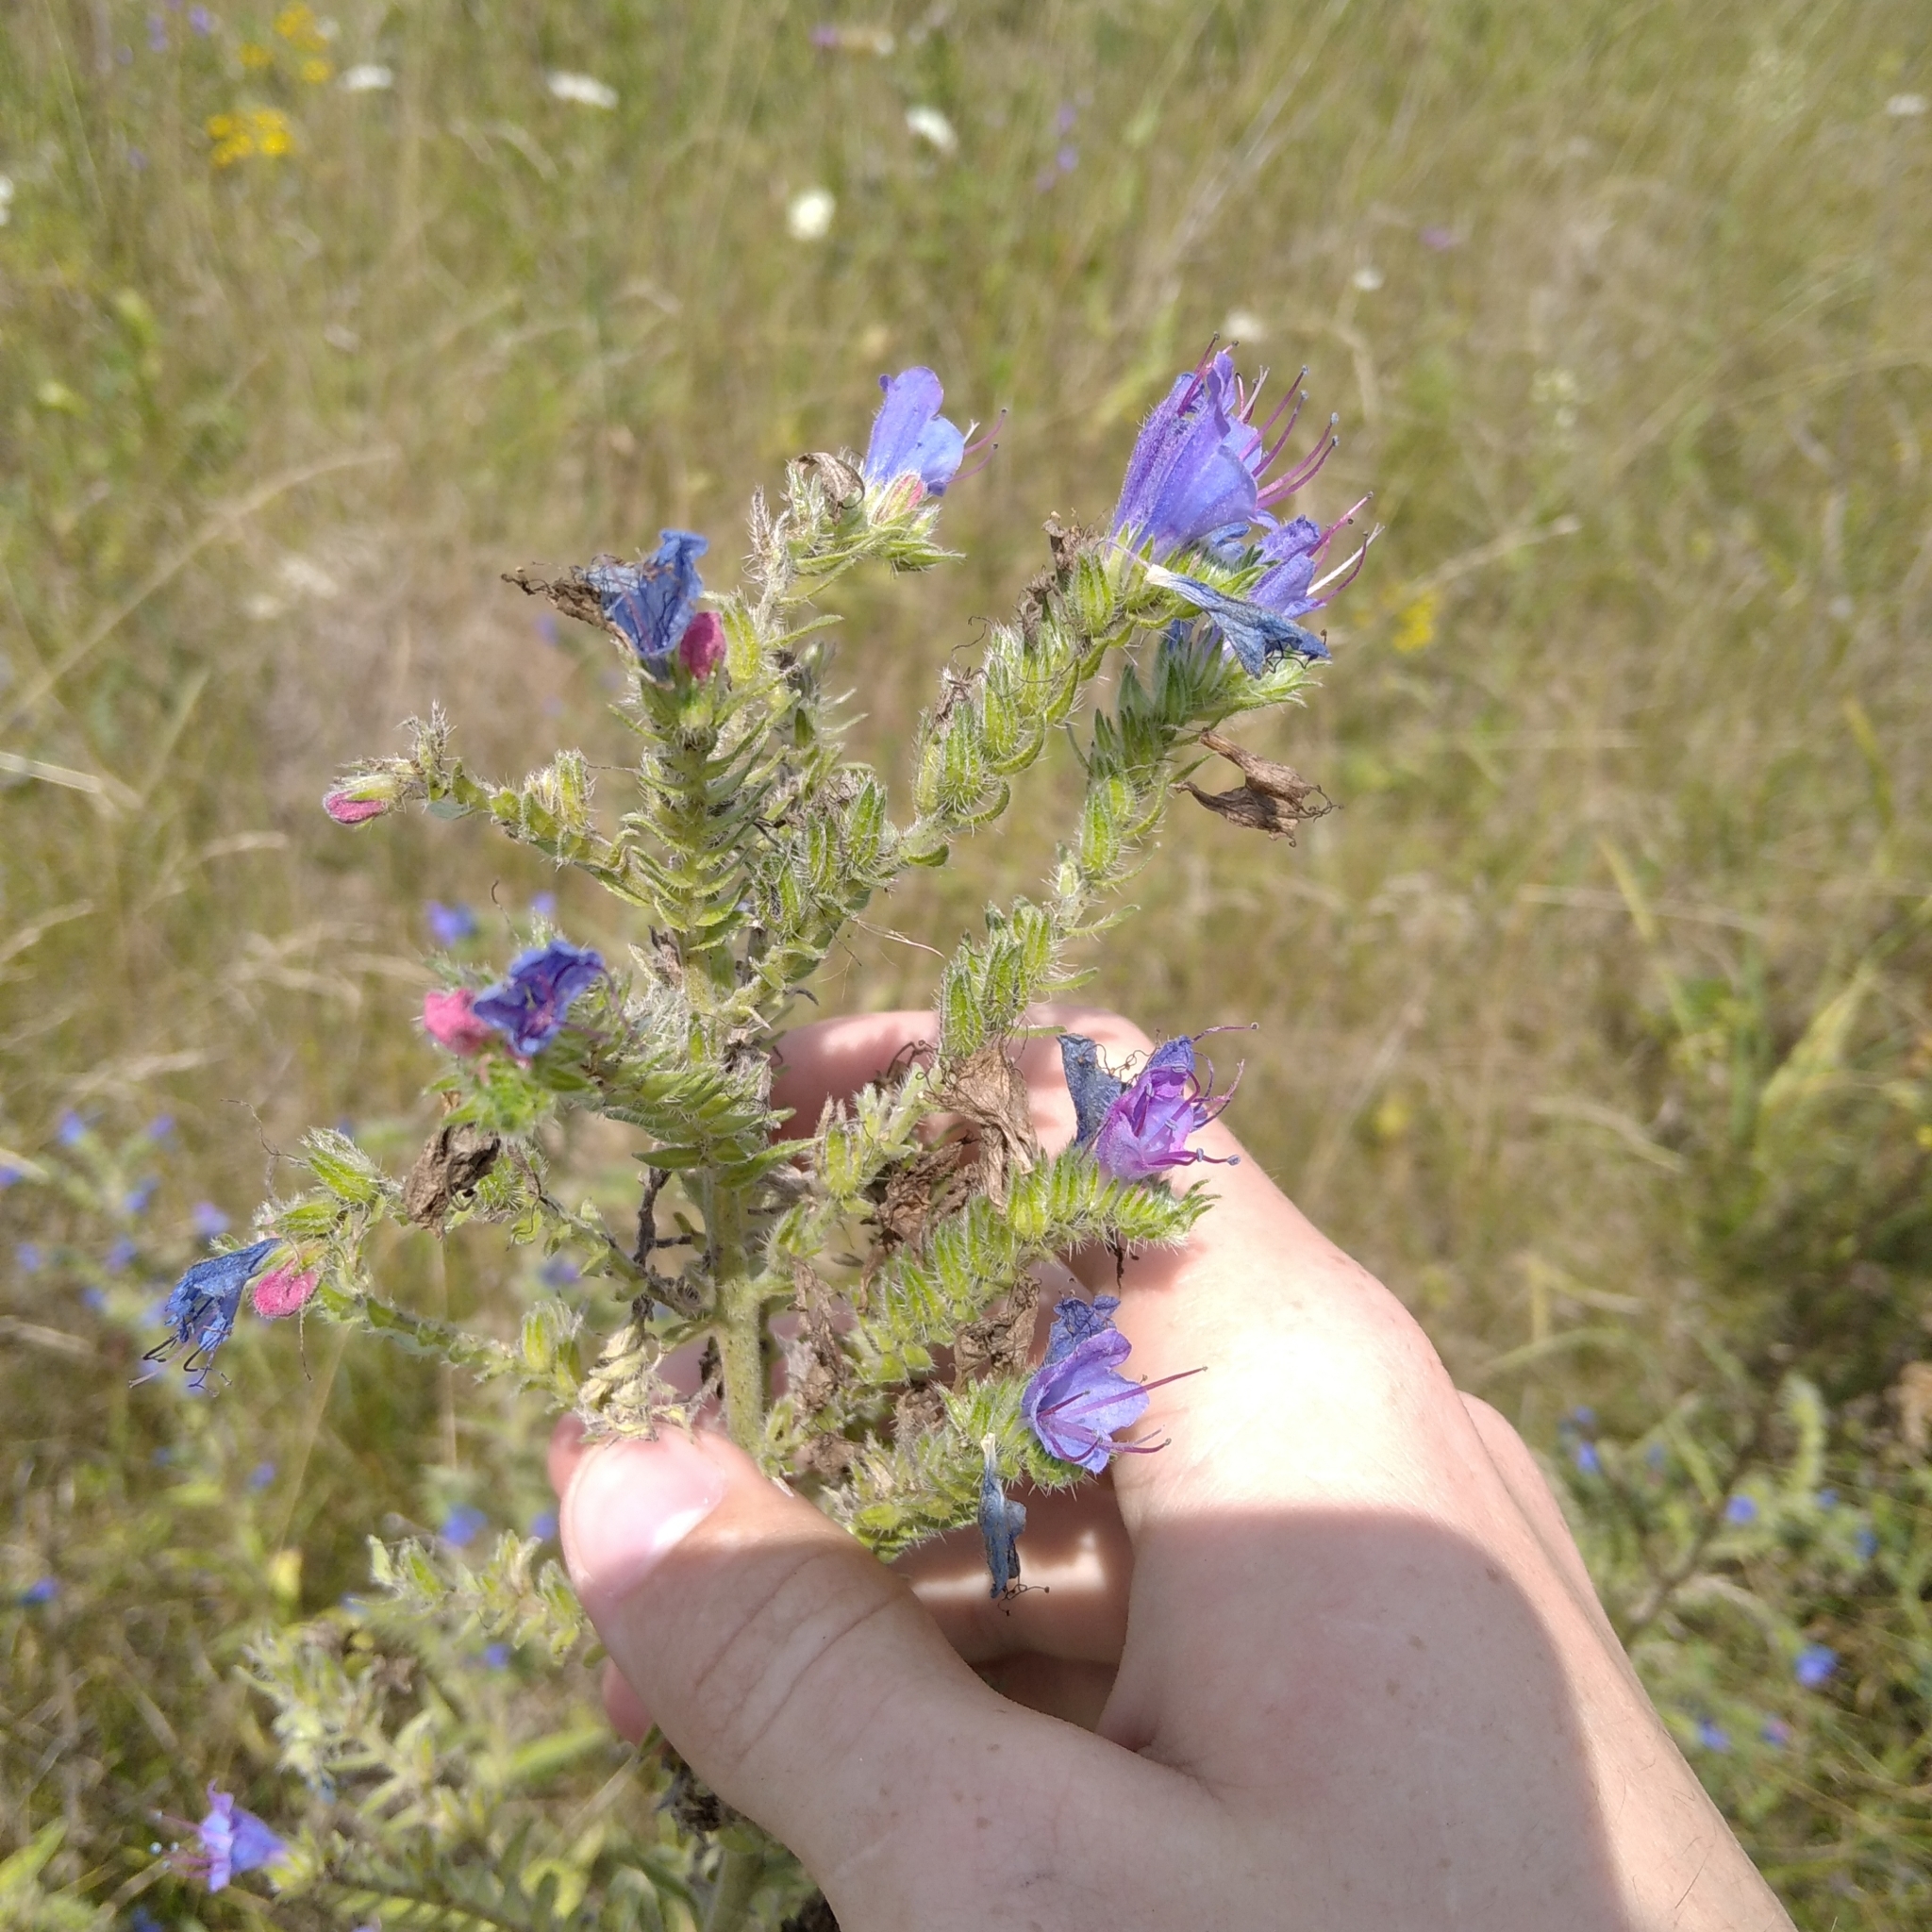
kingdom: Plantae
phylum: Tracheophyta
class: Magnoliopsida
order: Boraginales
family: Boraginaceae
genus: Echium
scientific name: Echium vulgare
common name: Common viper's bugloss
